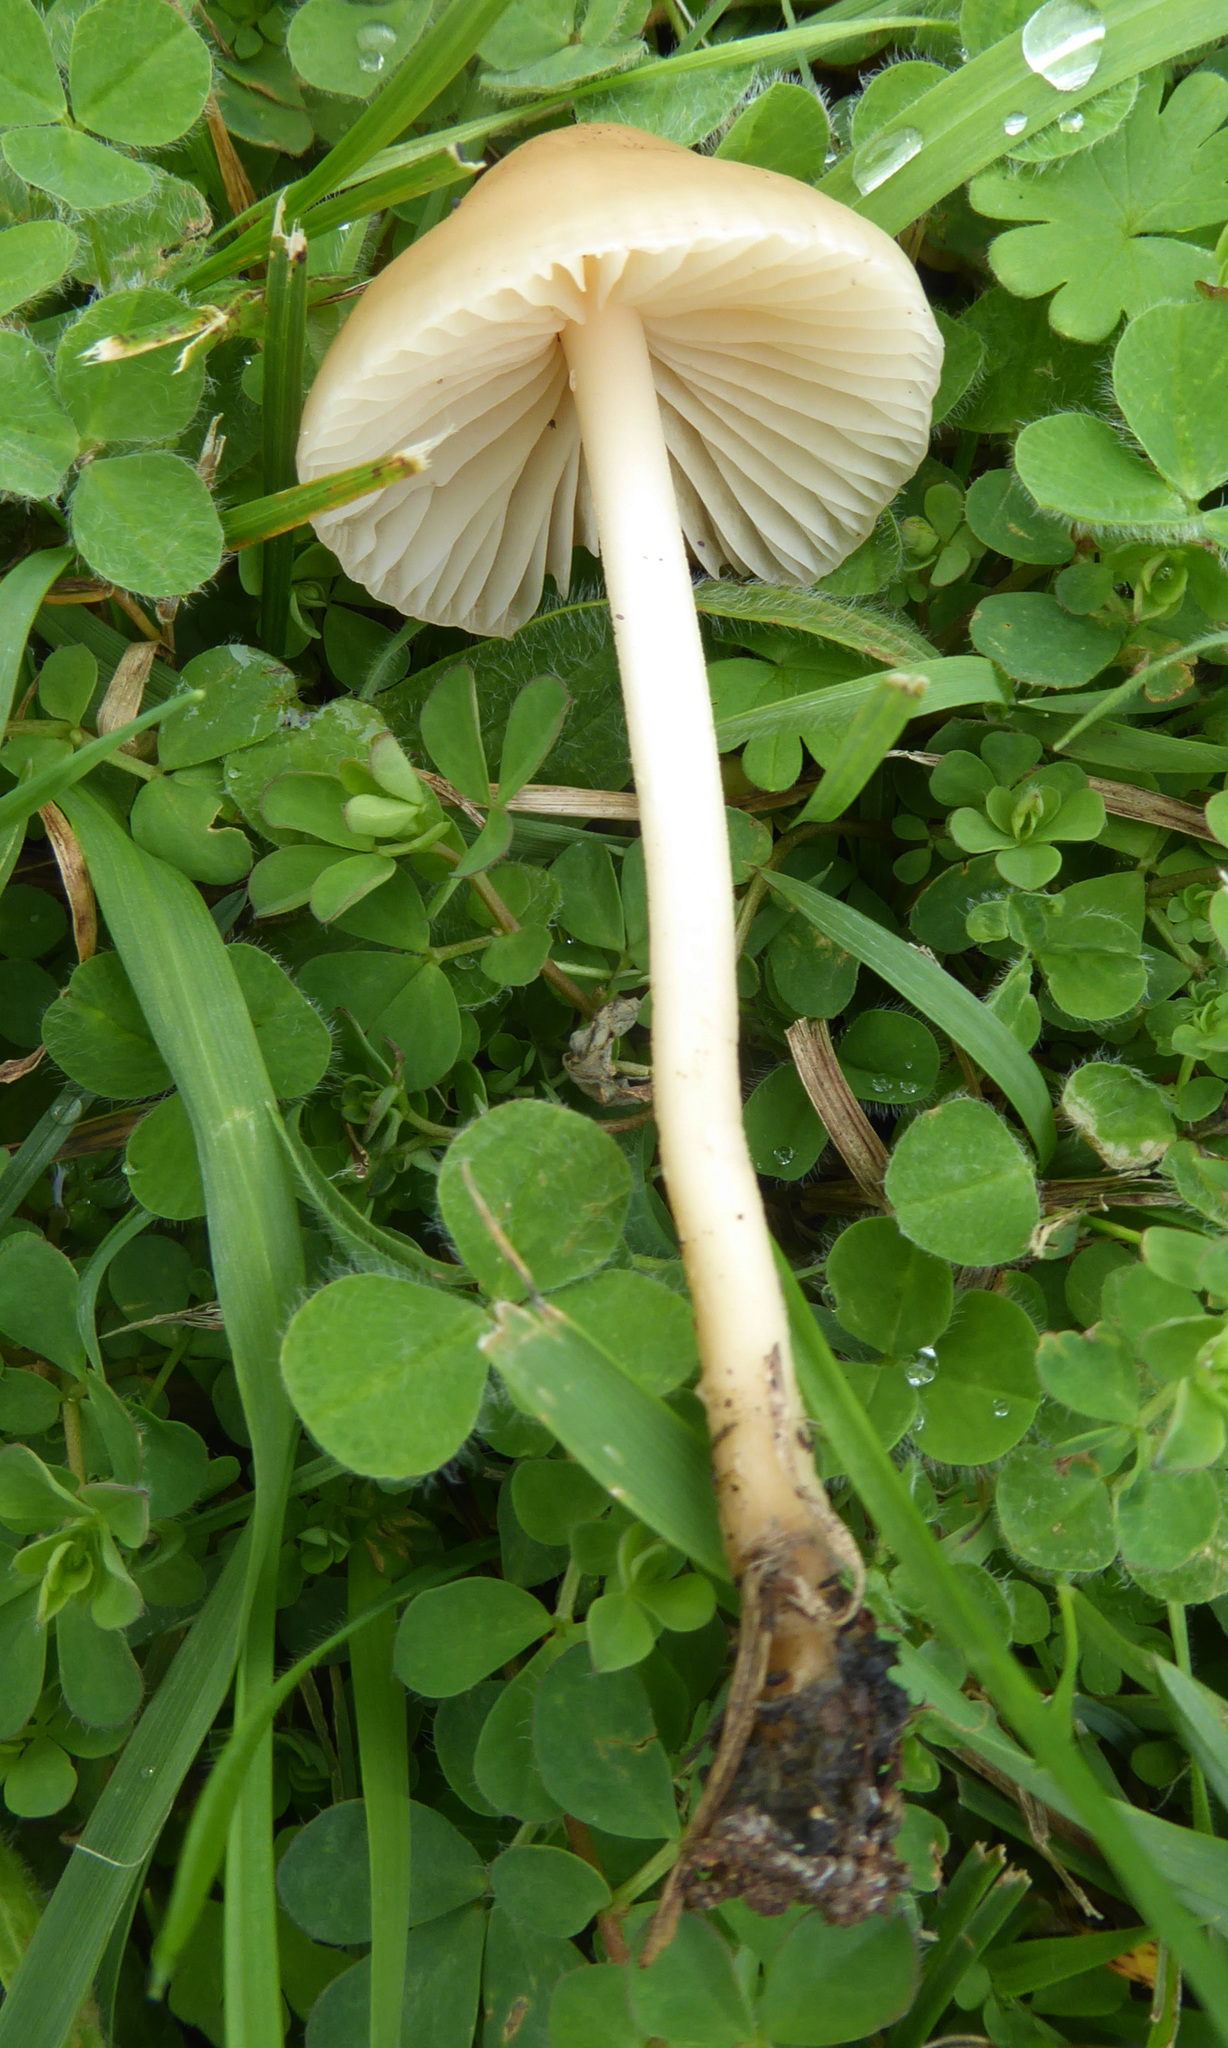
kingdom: Fungi
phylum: Basidiomycota
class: Agaricomycetes
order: Agaricales
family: Marasmiaceae
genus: Marasmius
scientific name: Marasmius oreades
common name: Fairy ring champignon
